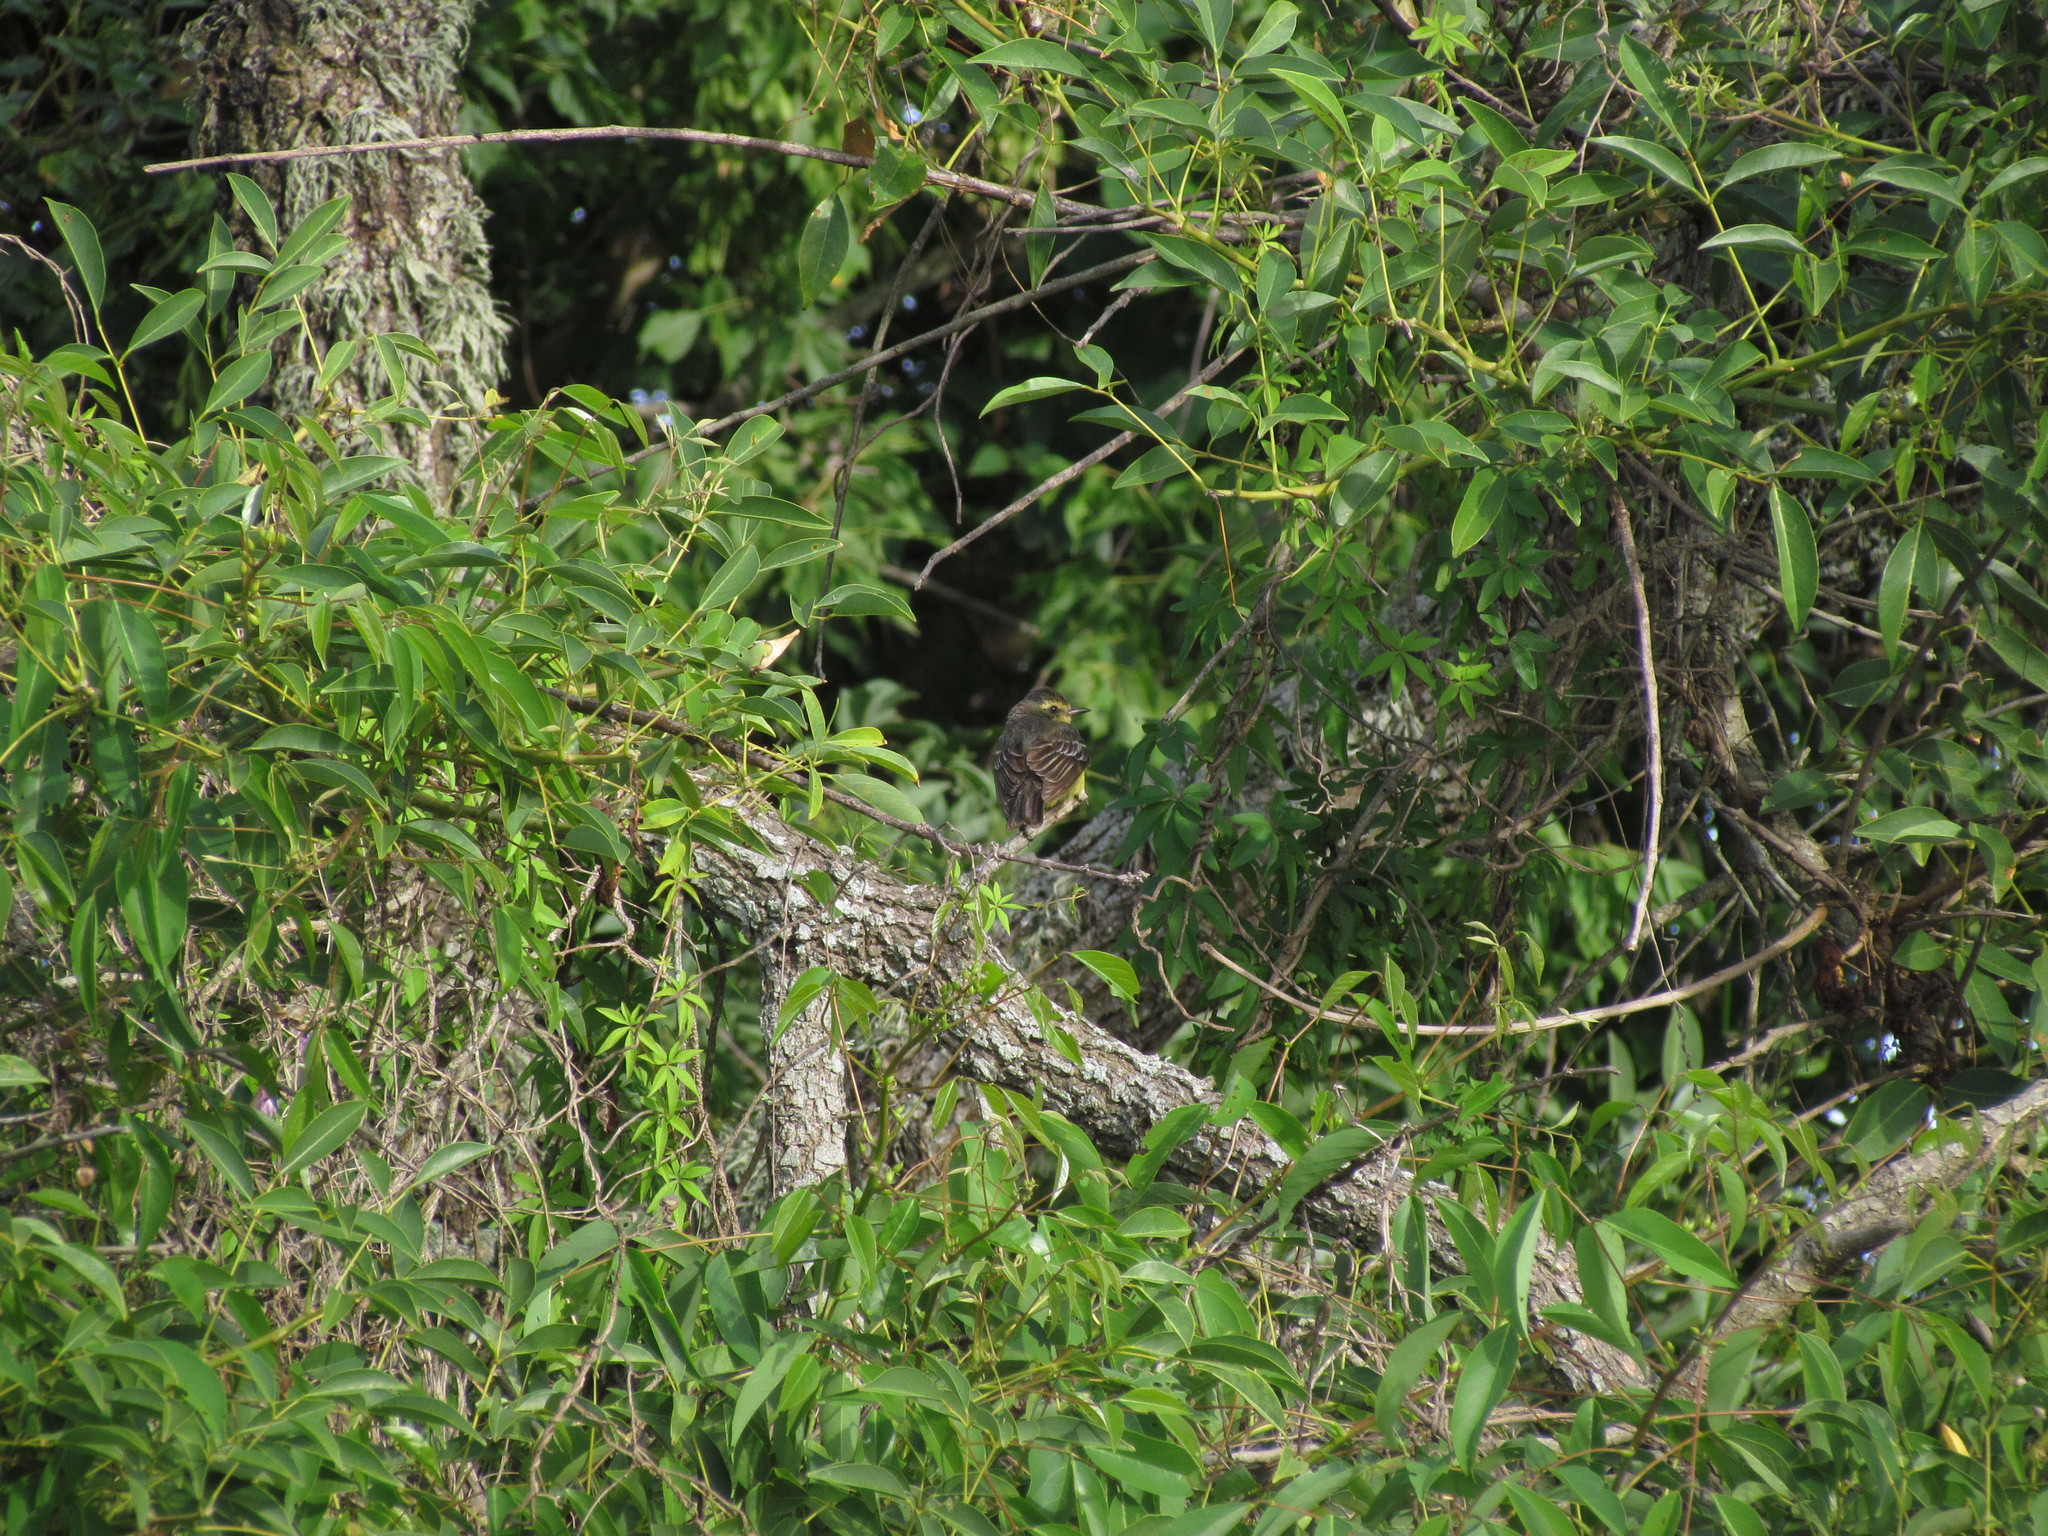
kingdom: Animalia
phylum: Chordata
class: Aves
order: Passeriformes
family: Tyrannidae
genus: Satrapa
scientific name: Satrapa icterophrys
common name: Yellow-browed tyrant
